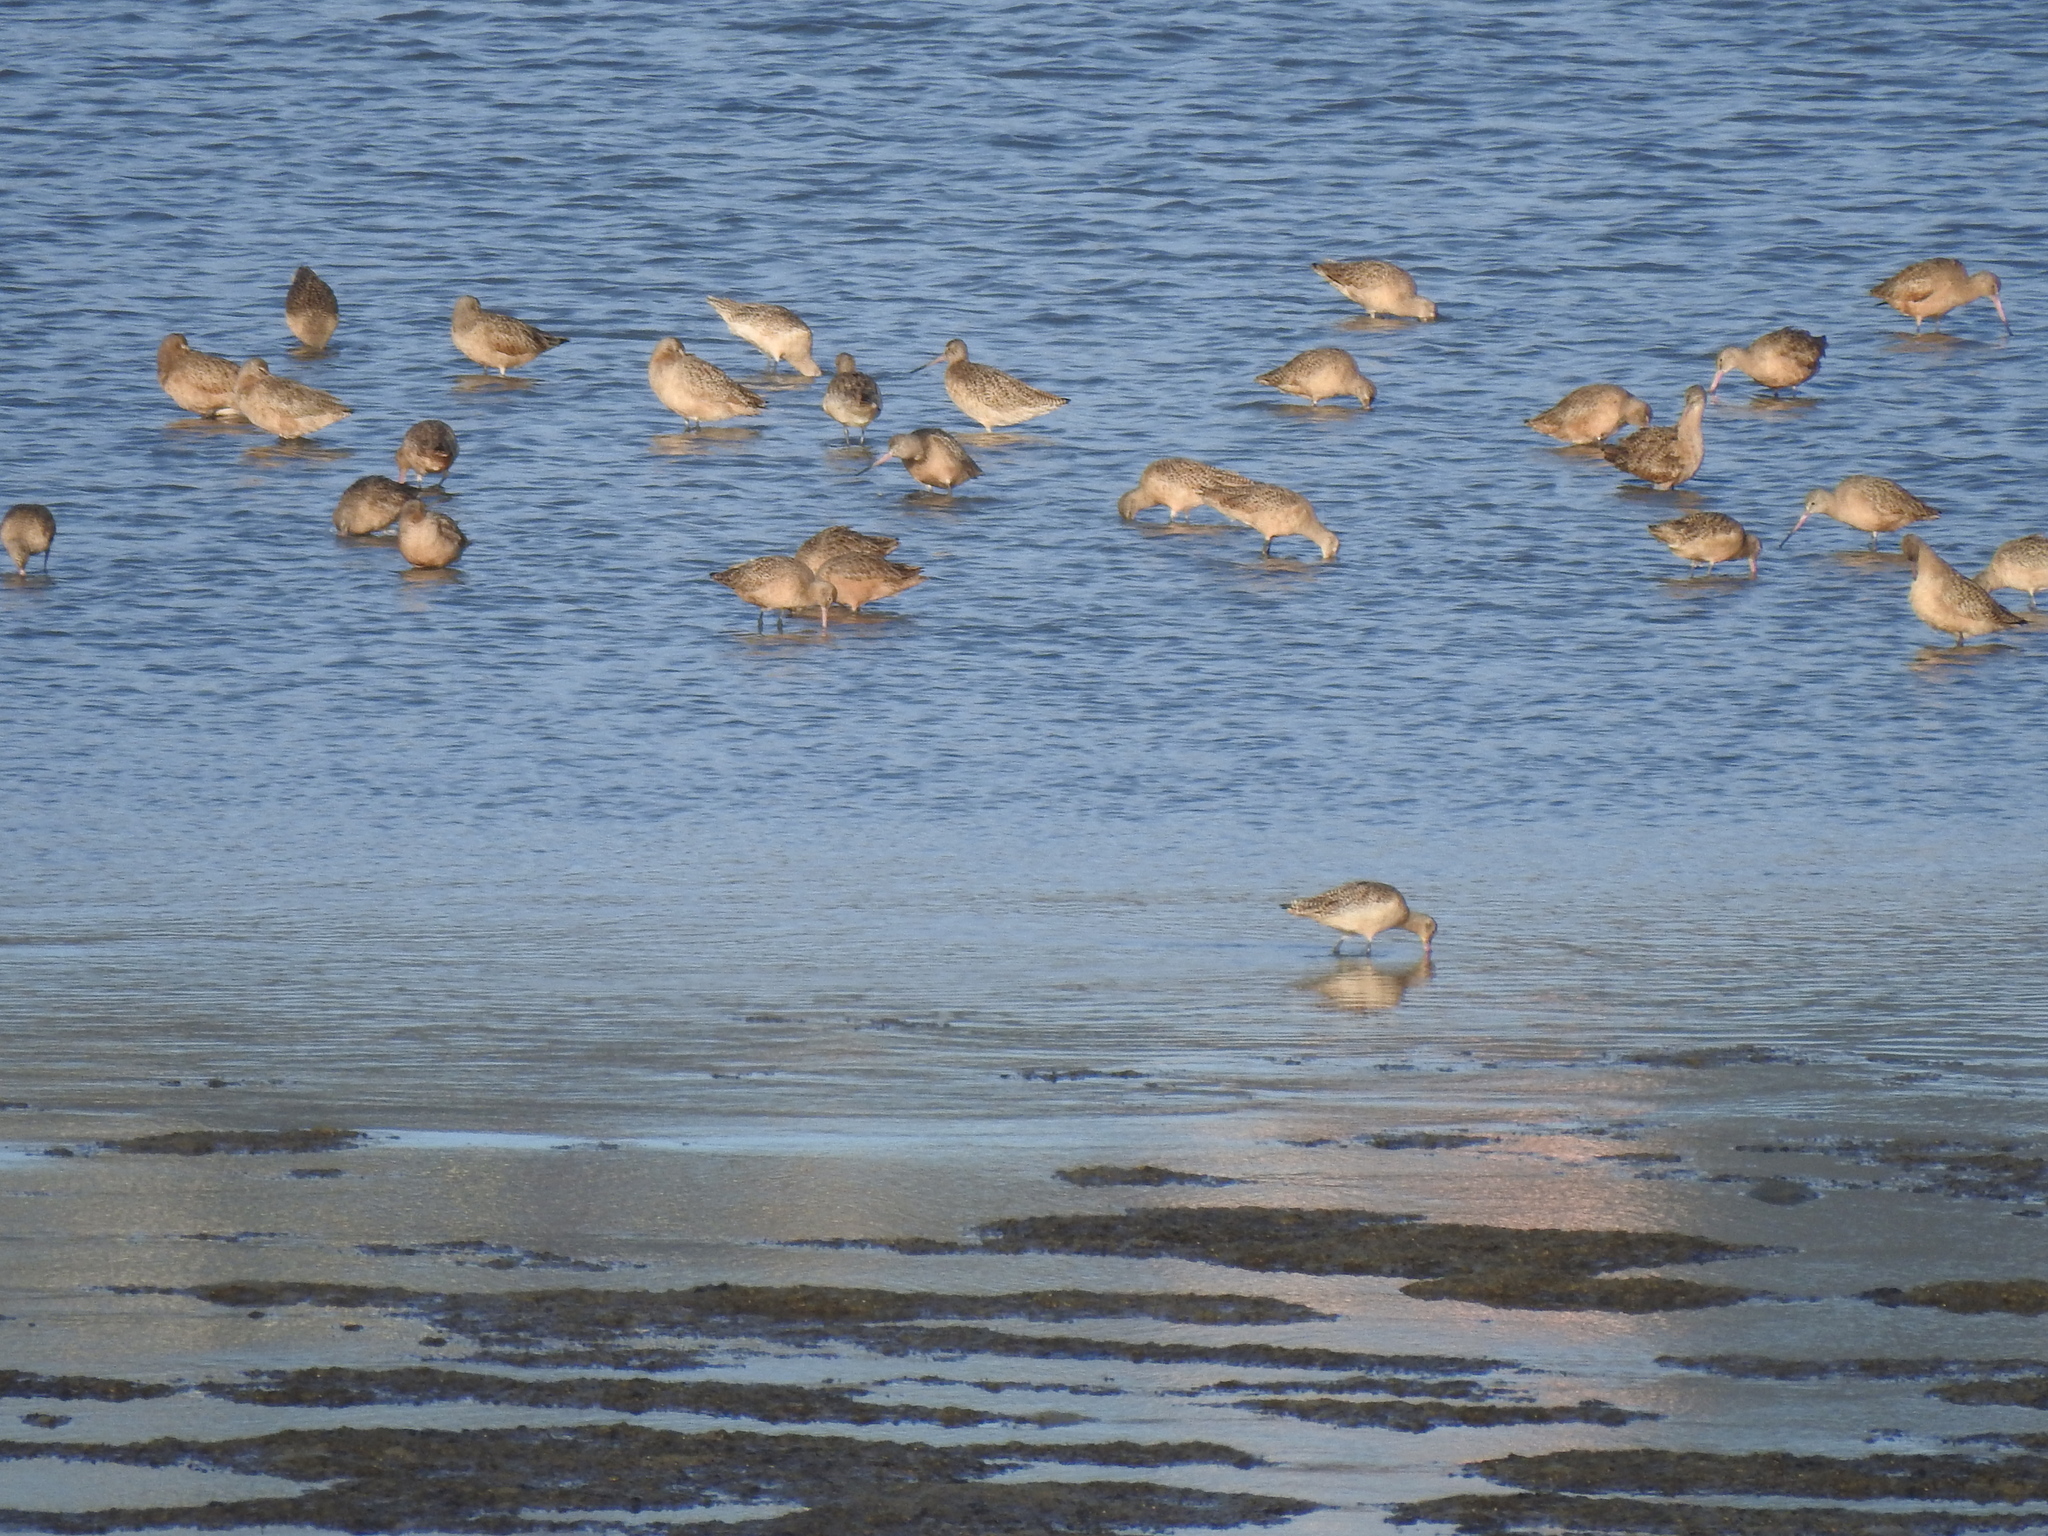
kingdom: Animalia
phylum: Chordata
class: Aves
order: Charadriiformes
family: Scolopacidae
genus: Limosa
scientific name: Limosa fedoa
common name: Marbled godwit
